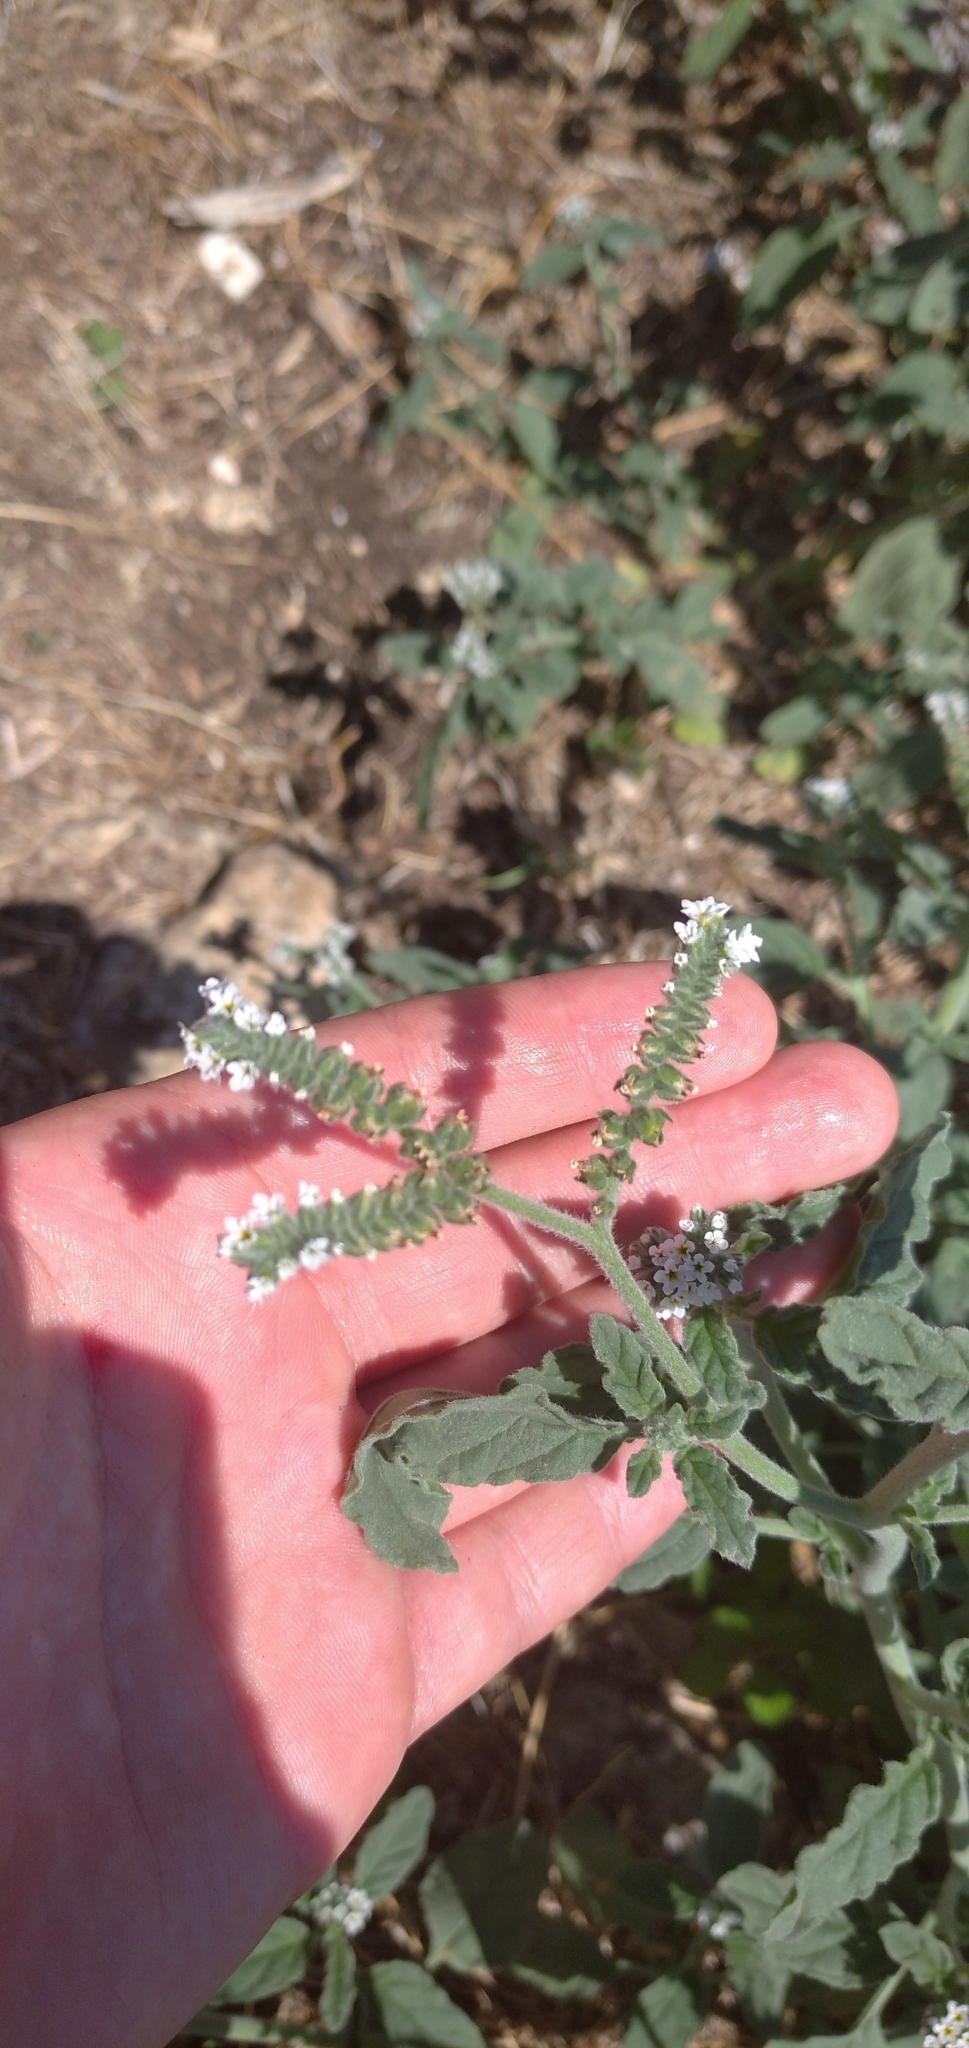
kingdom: Plantae
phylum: Tracheophyta
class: Magnoliopsida
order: Boraginales
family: Heliotropiaceae
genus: Heliotropium
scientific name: Heliotropium europaeum
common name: European heliotrope
